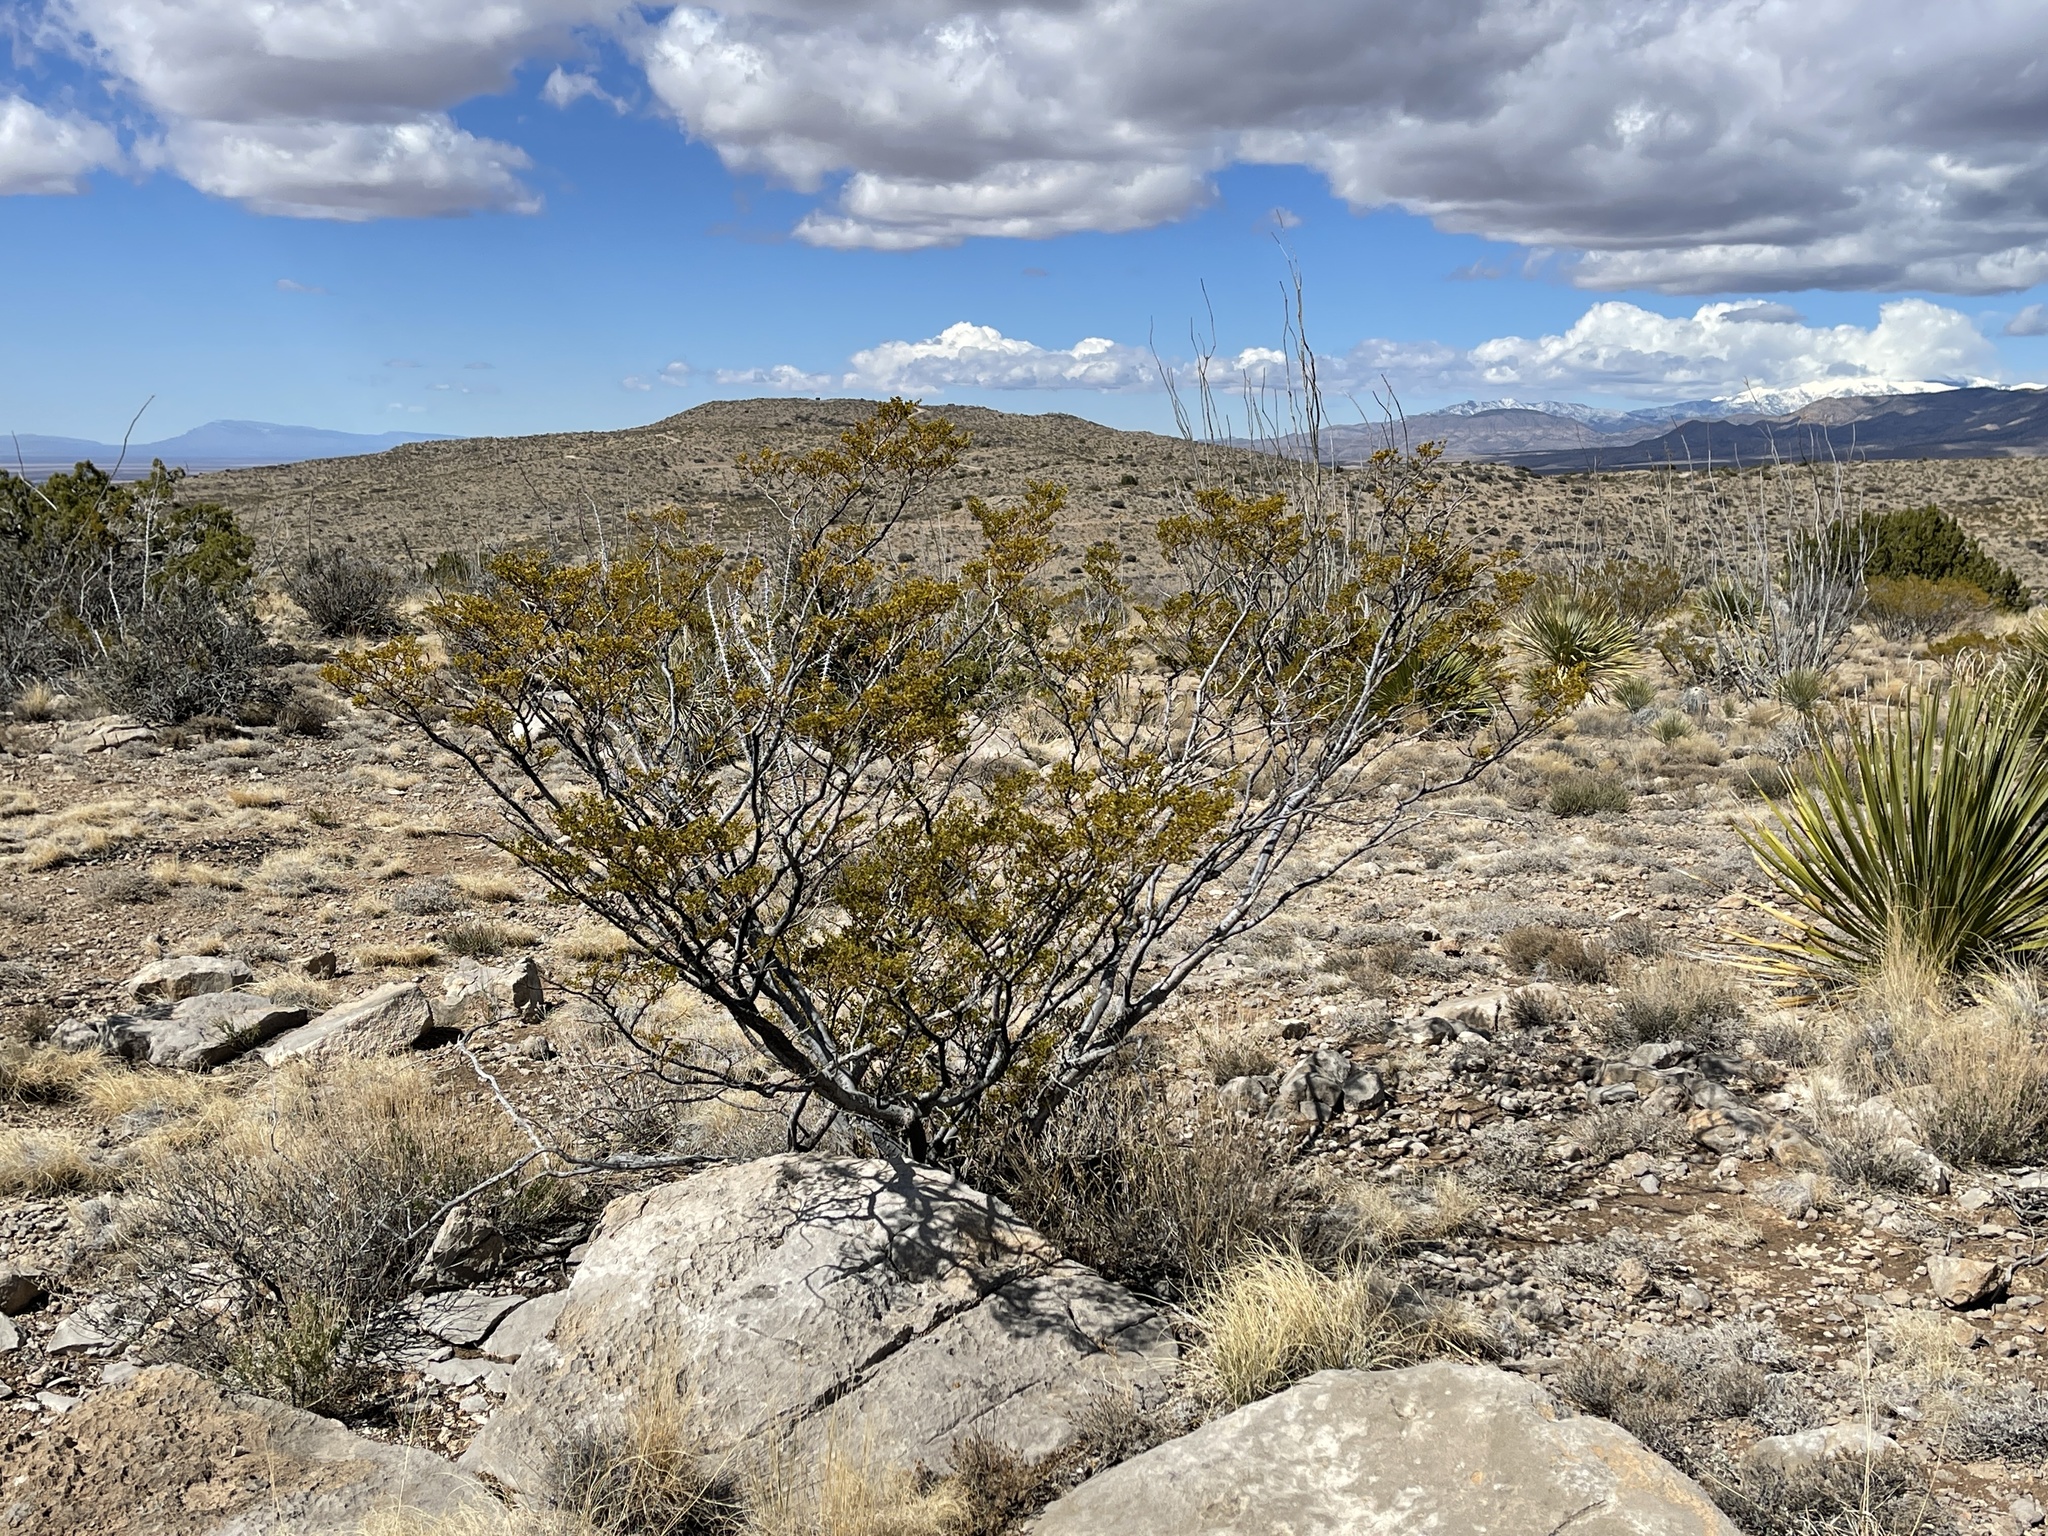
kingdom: Plantae
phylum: Tracheophyta
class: Magnoliopsida
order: Zygophyllales
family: Zygophyllaceae
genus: Larrea
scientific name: Larrea tridentata
